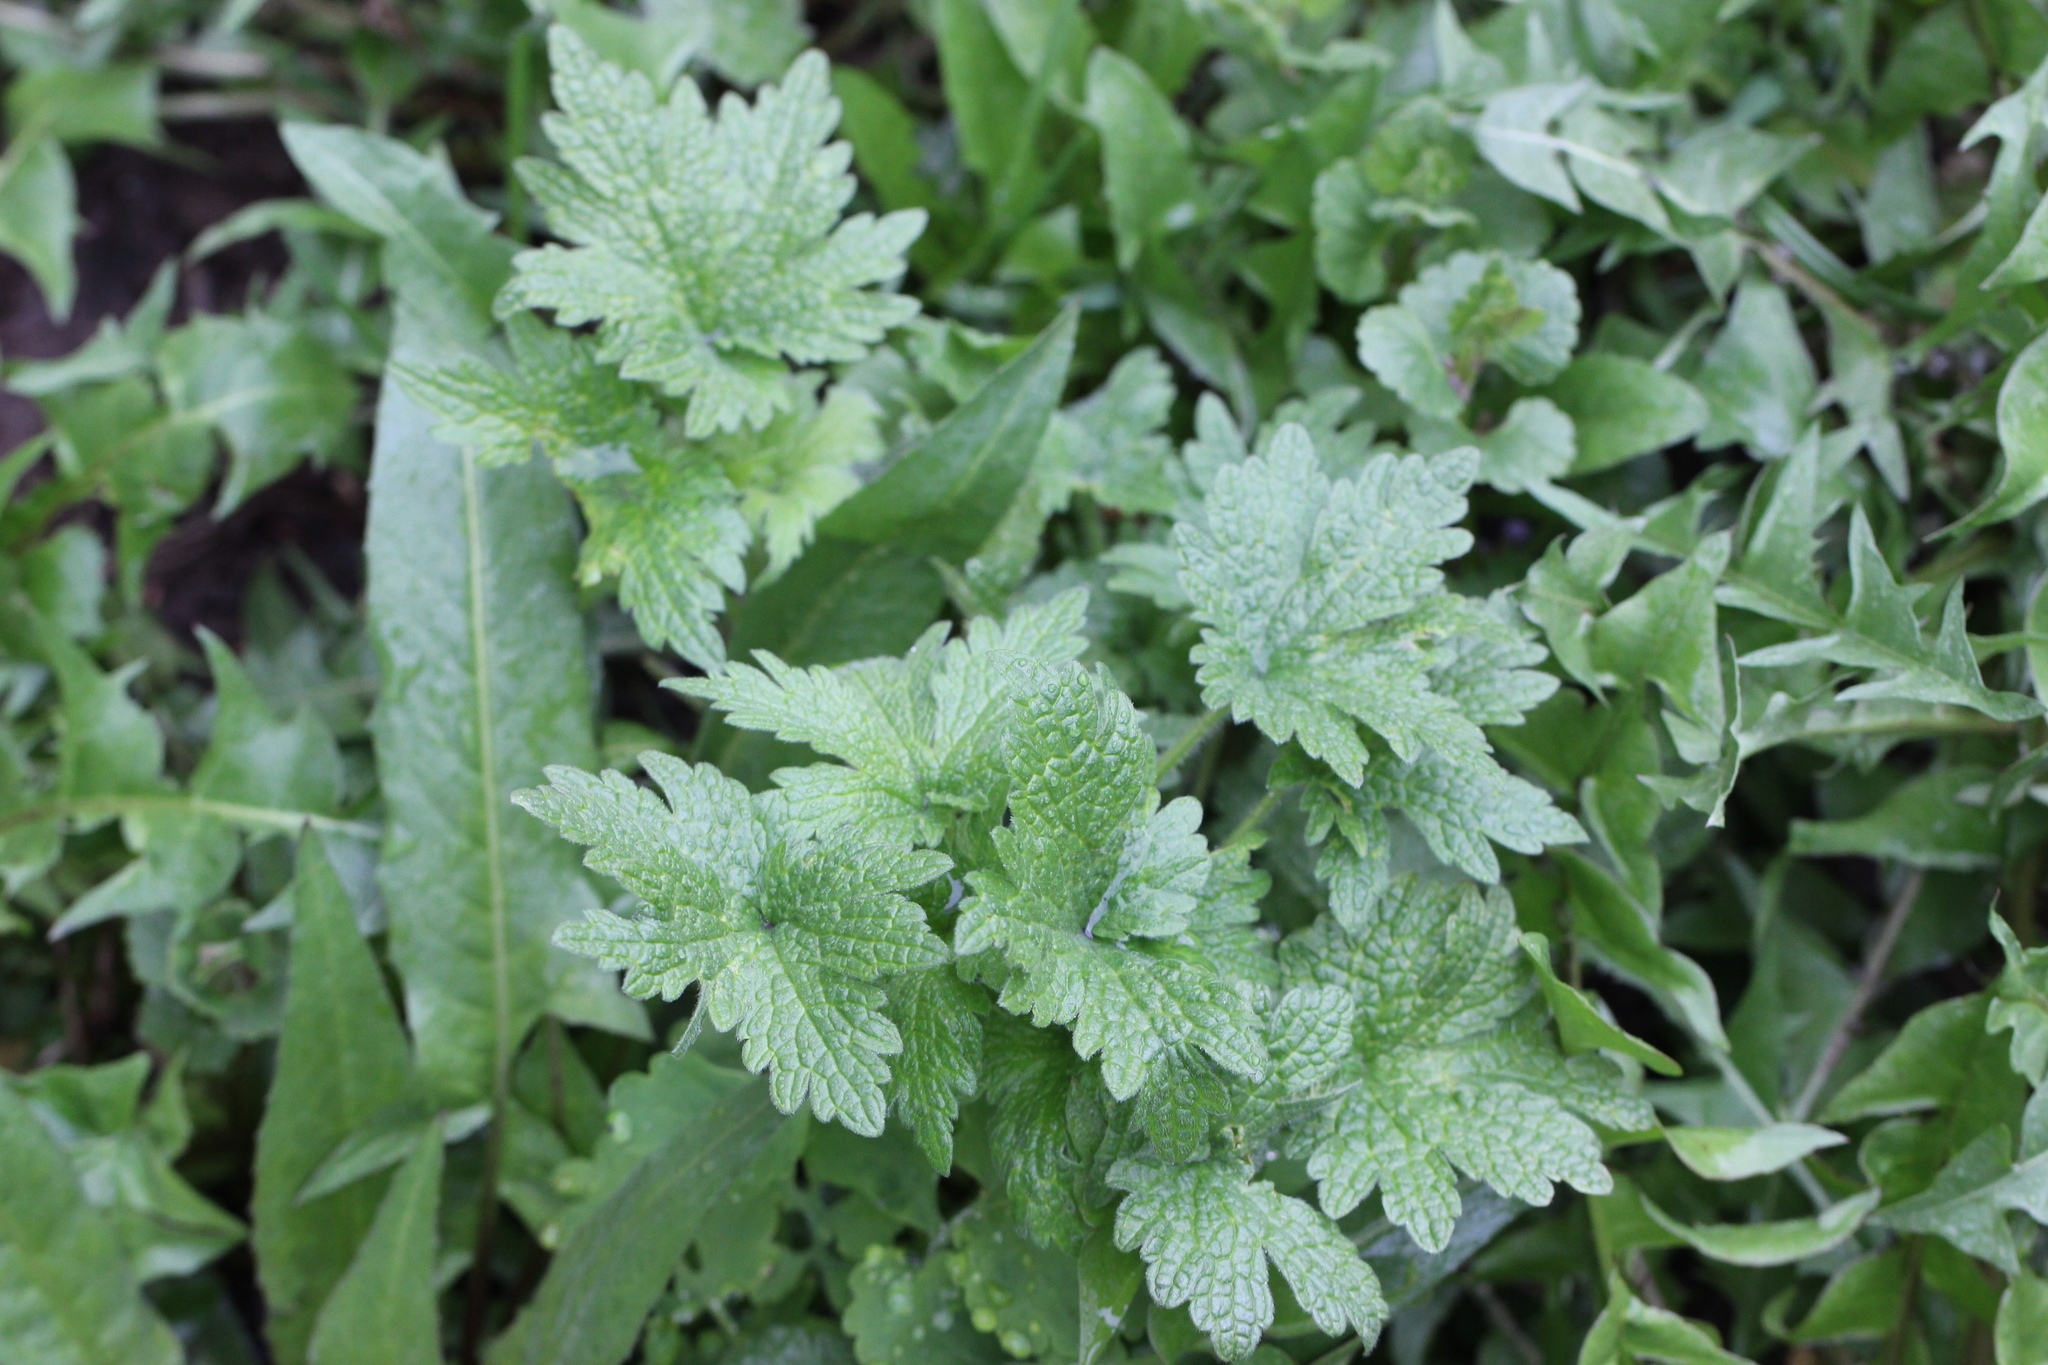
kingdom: Plantae
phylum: Tracheophyta
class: Magnoliopsida
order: Lamiales
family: Lamiaceae
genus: Leonurus
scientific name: Leonurus quinquelobatus
